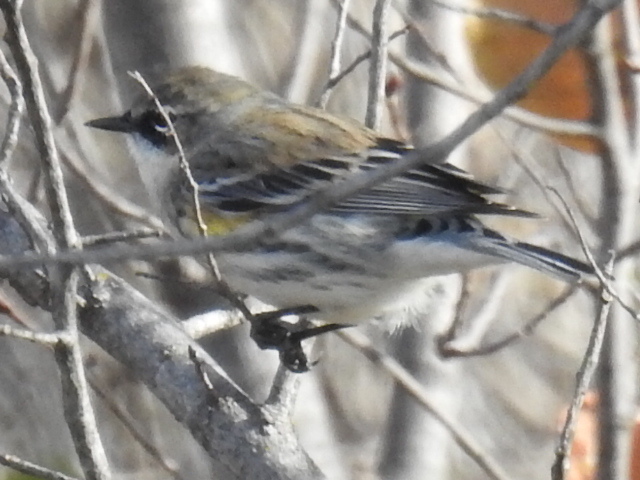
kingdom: Animalia
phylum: Chordata
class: Aves
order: Passeriformes
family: Parulidae
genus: Setophaga
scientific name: Setophaga coronata
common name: Myrtle warbler
